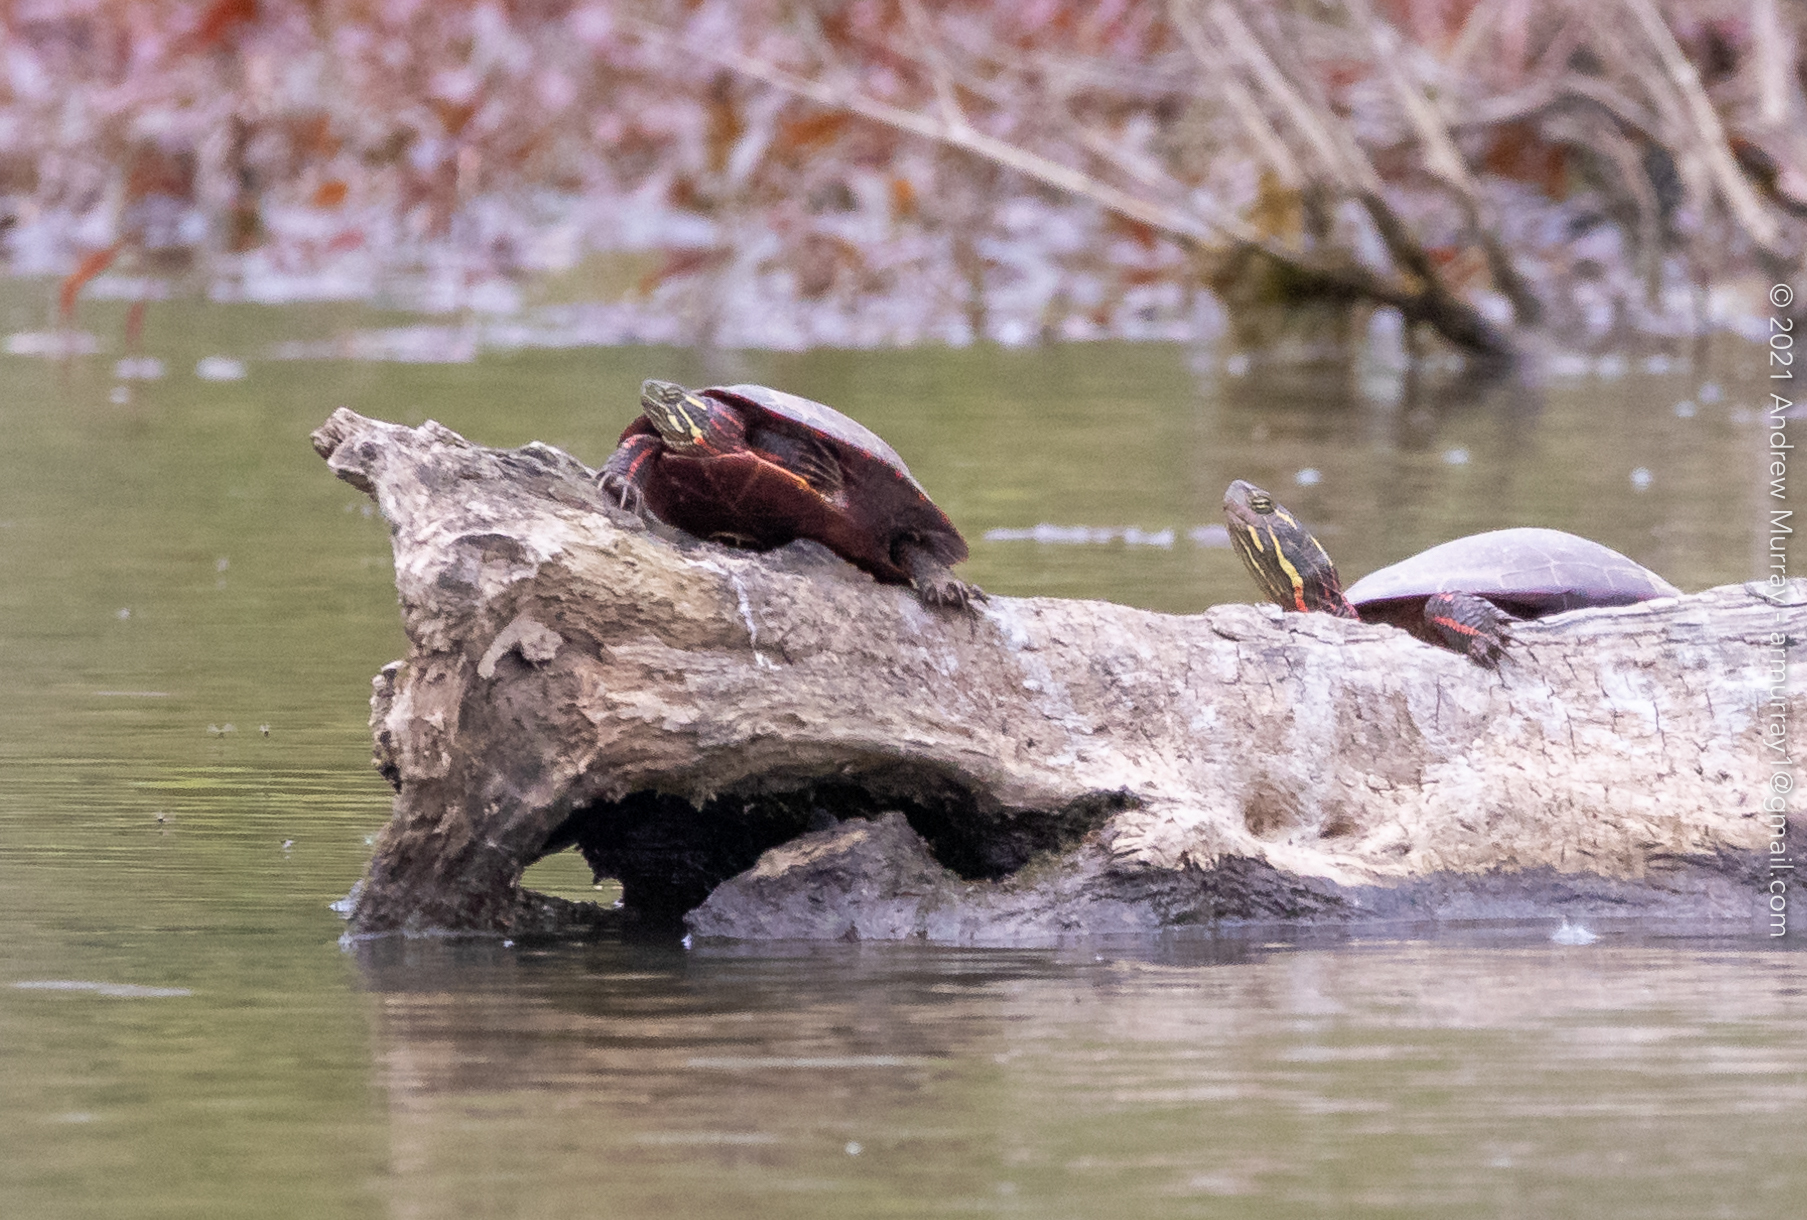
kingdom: Animalia
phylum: Chordata
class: Testudines
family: Emydidae
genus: Chrysemys
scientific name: Chrysemys picta
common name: Painted turtle
